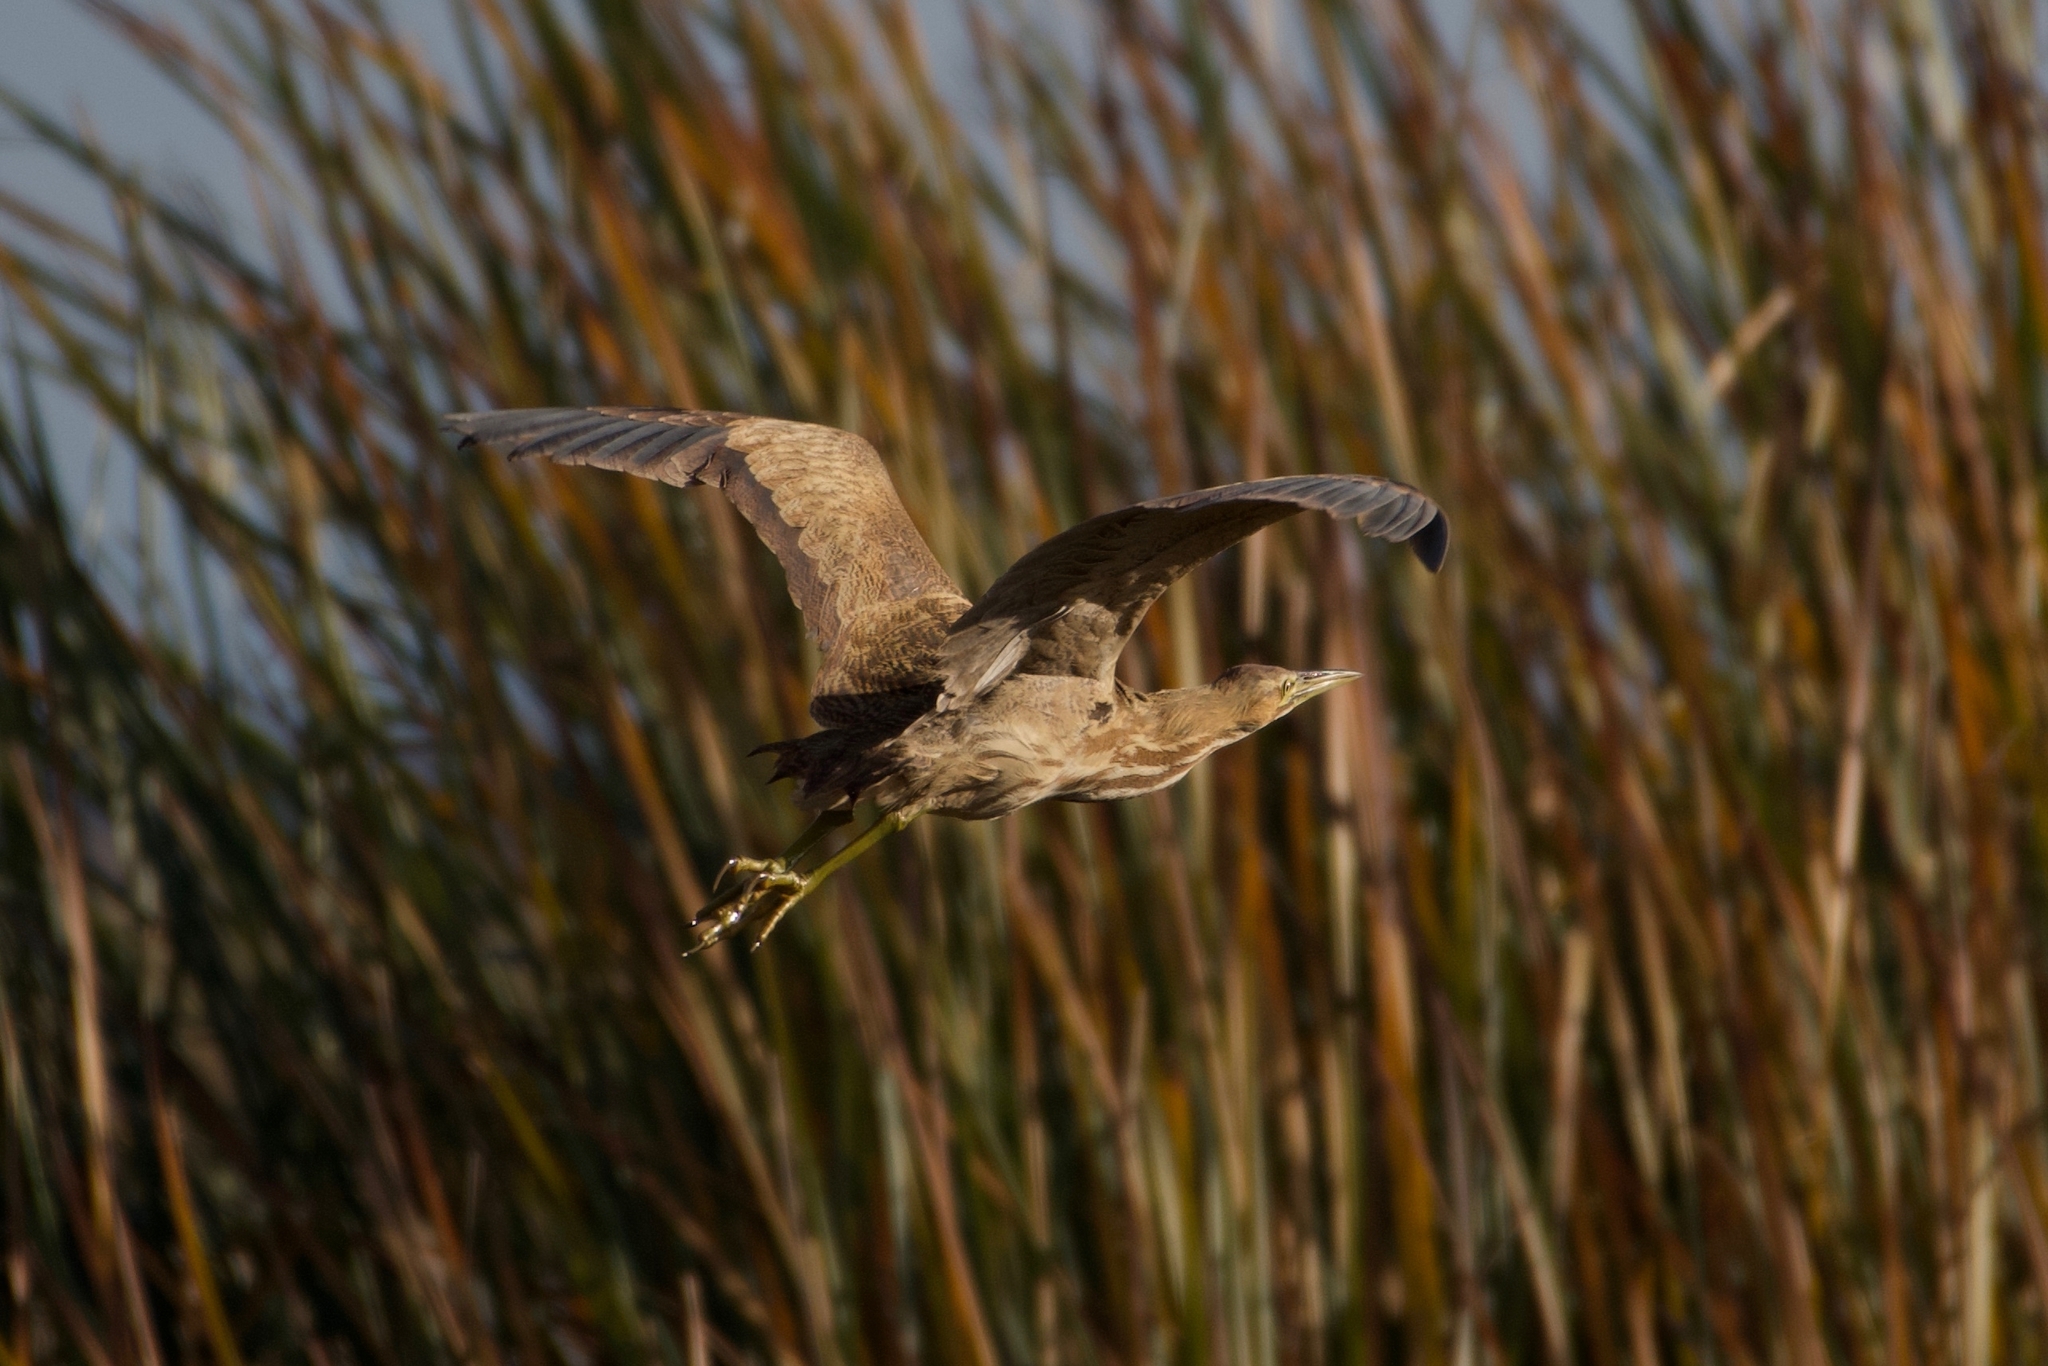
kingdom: Animalia
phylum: Chordata
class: Aves
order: Pelecaniformes
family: Ardeidae
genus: Botaurus
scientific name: Botaurus lentiginosus
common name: American bittern
